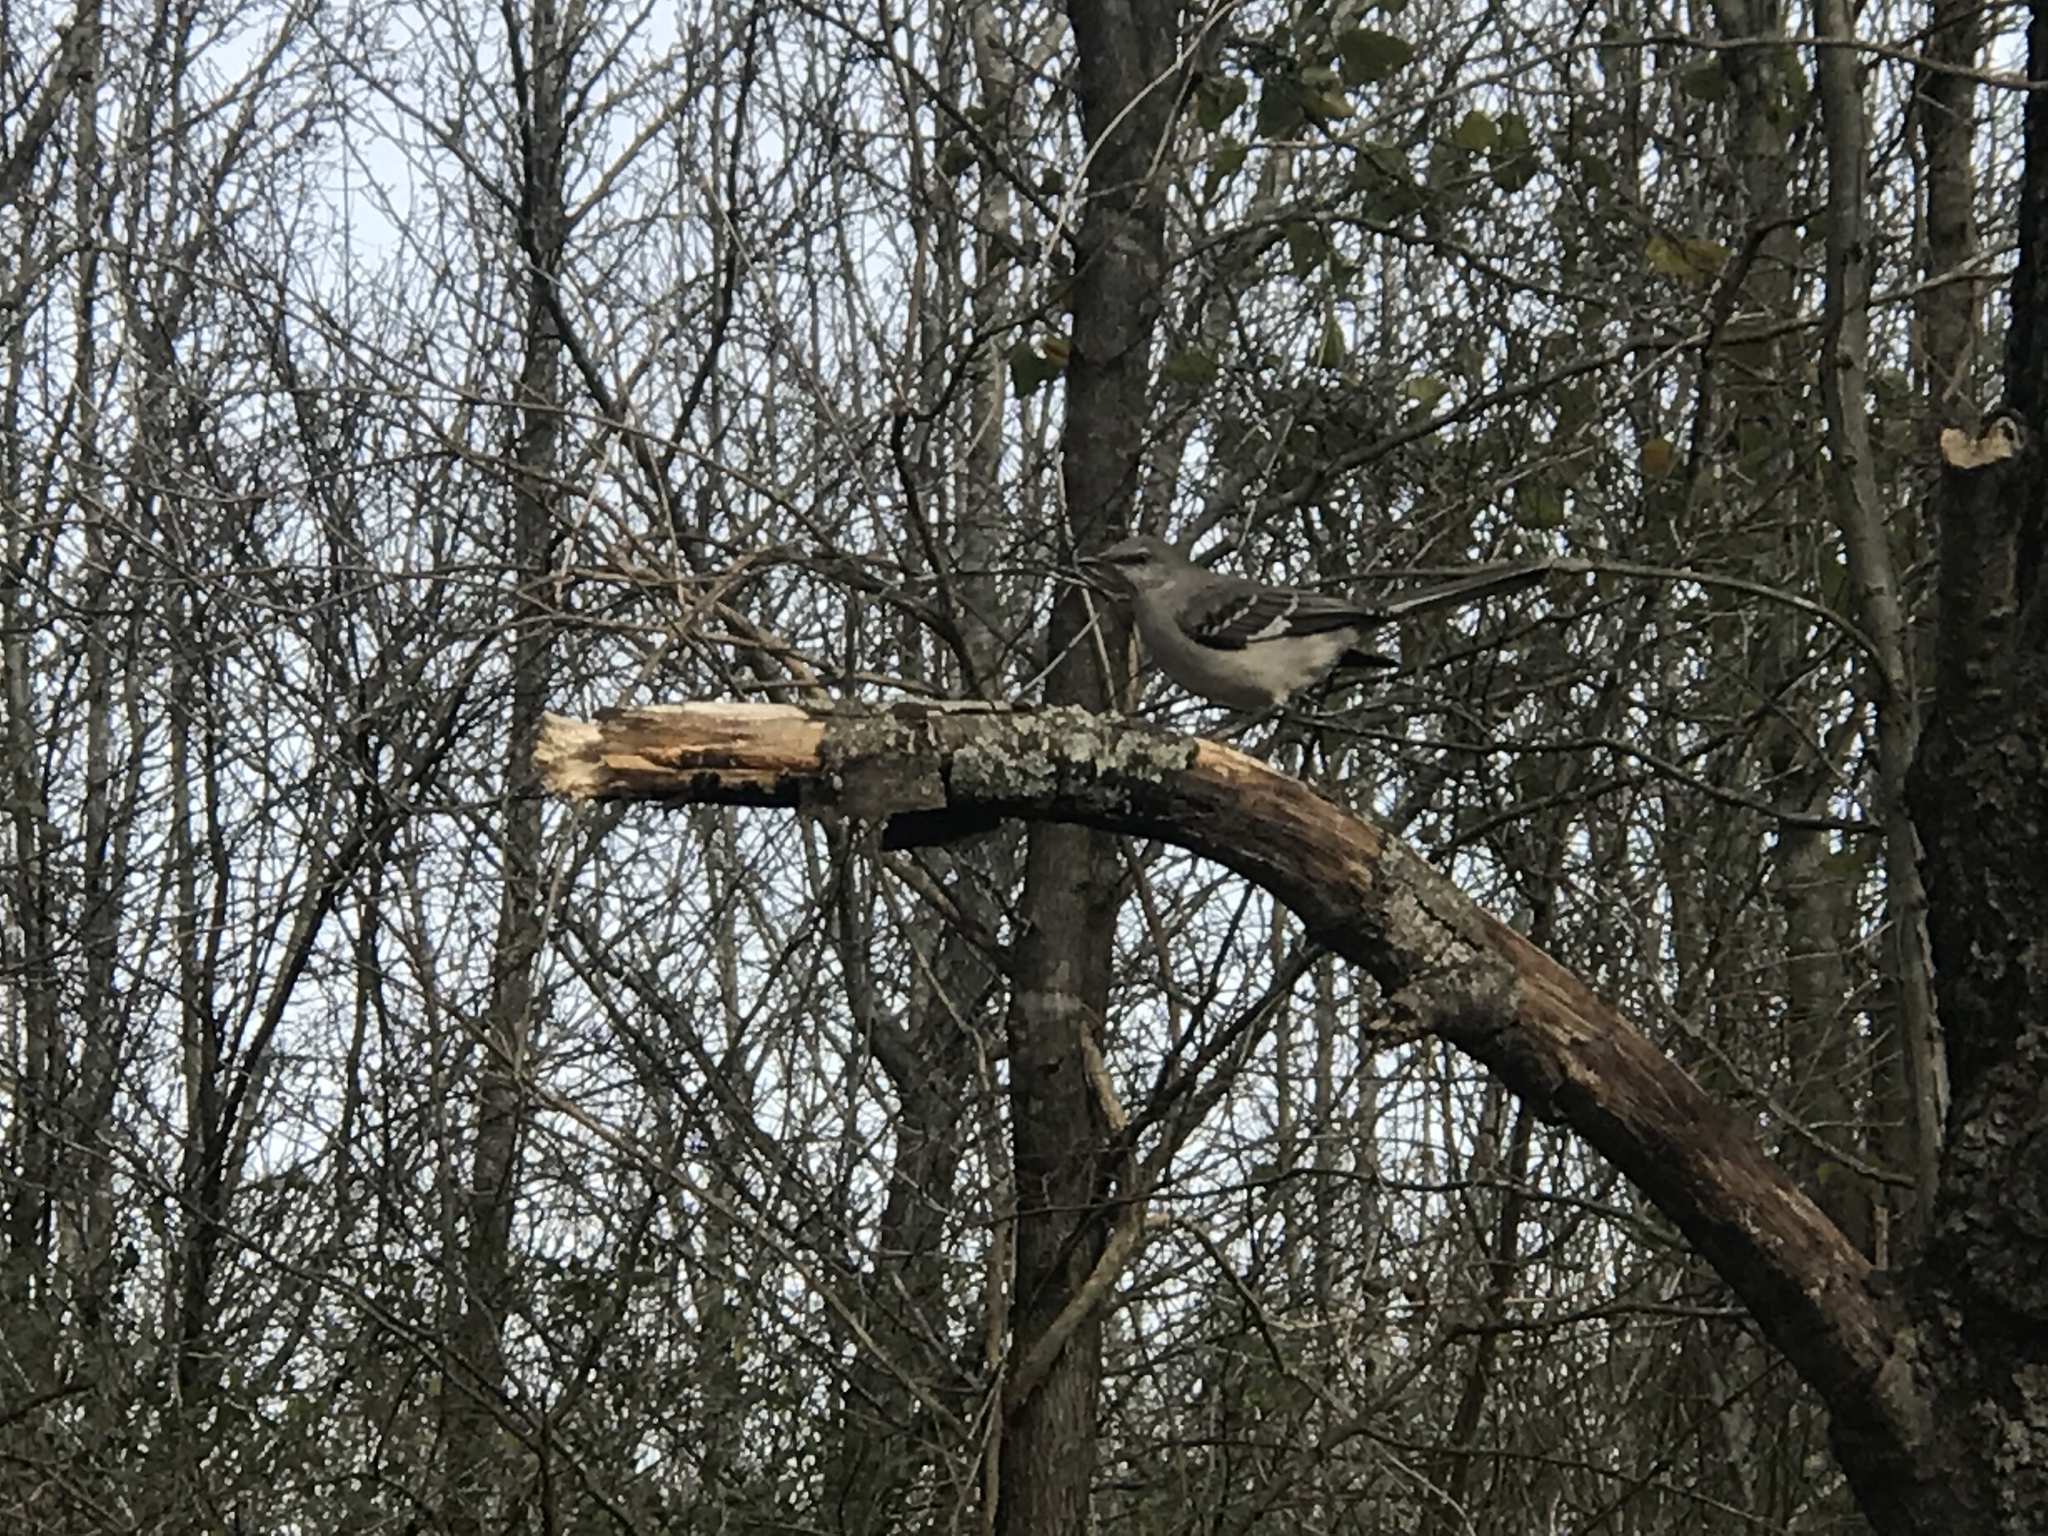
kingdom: Animalia
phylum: Chordata
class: Aves
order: Passeriformes
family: Mimidae
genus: Mimus
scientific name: Mimus polyglottos
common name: Northern mockingbird
